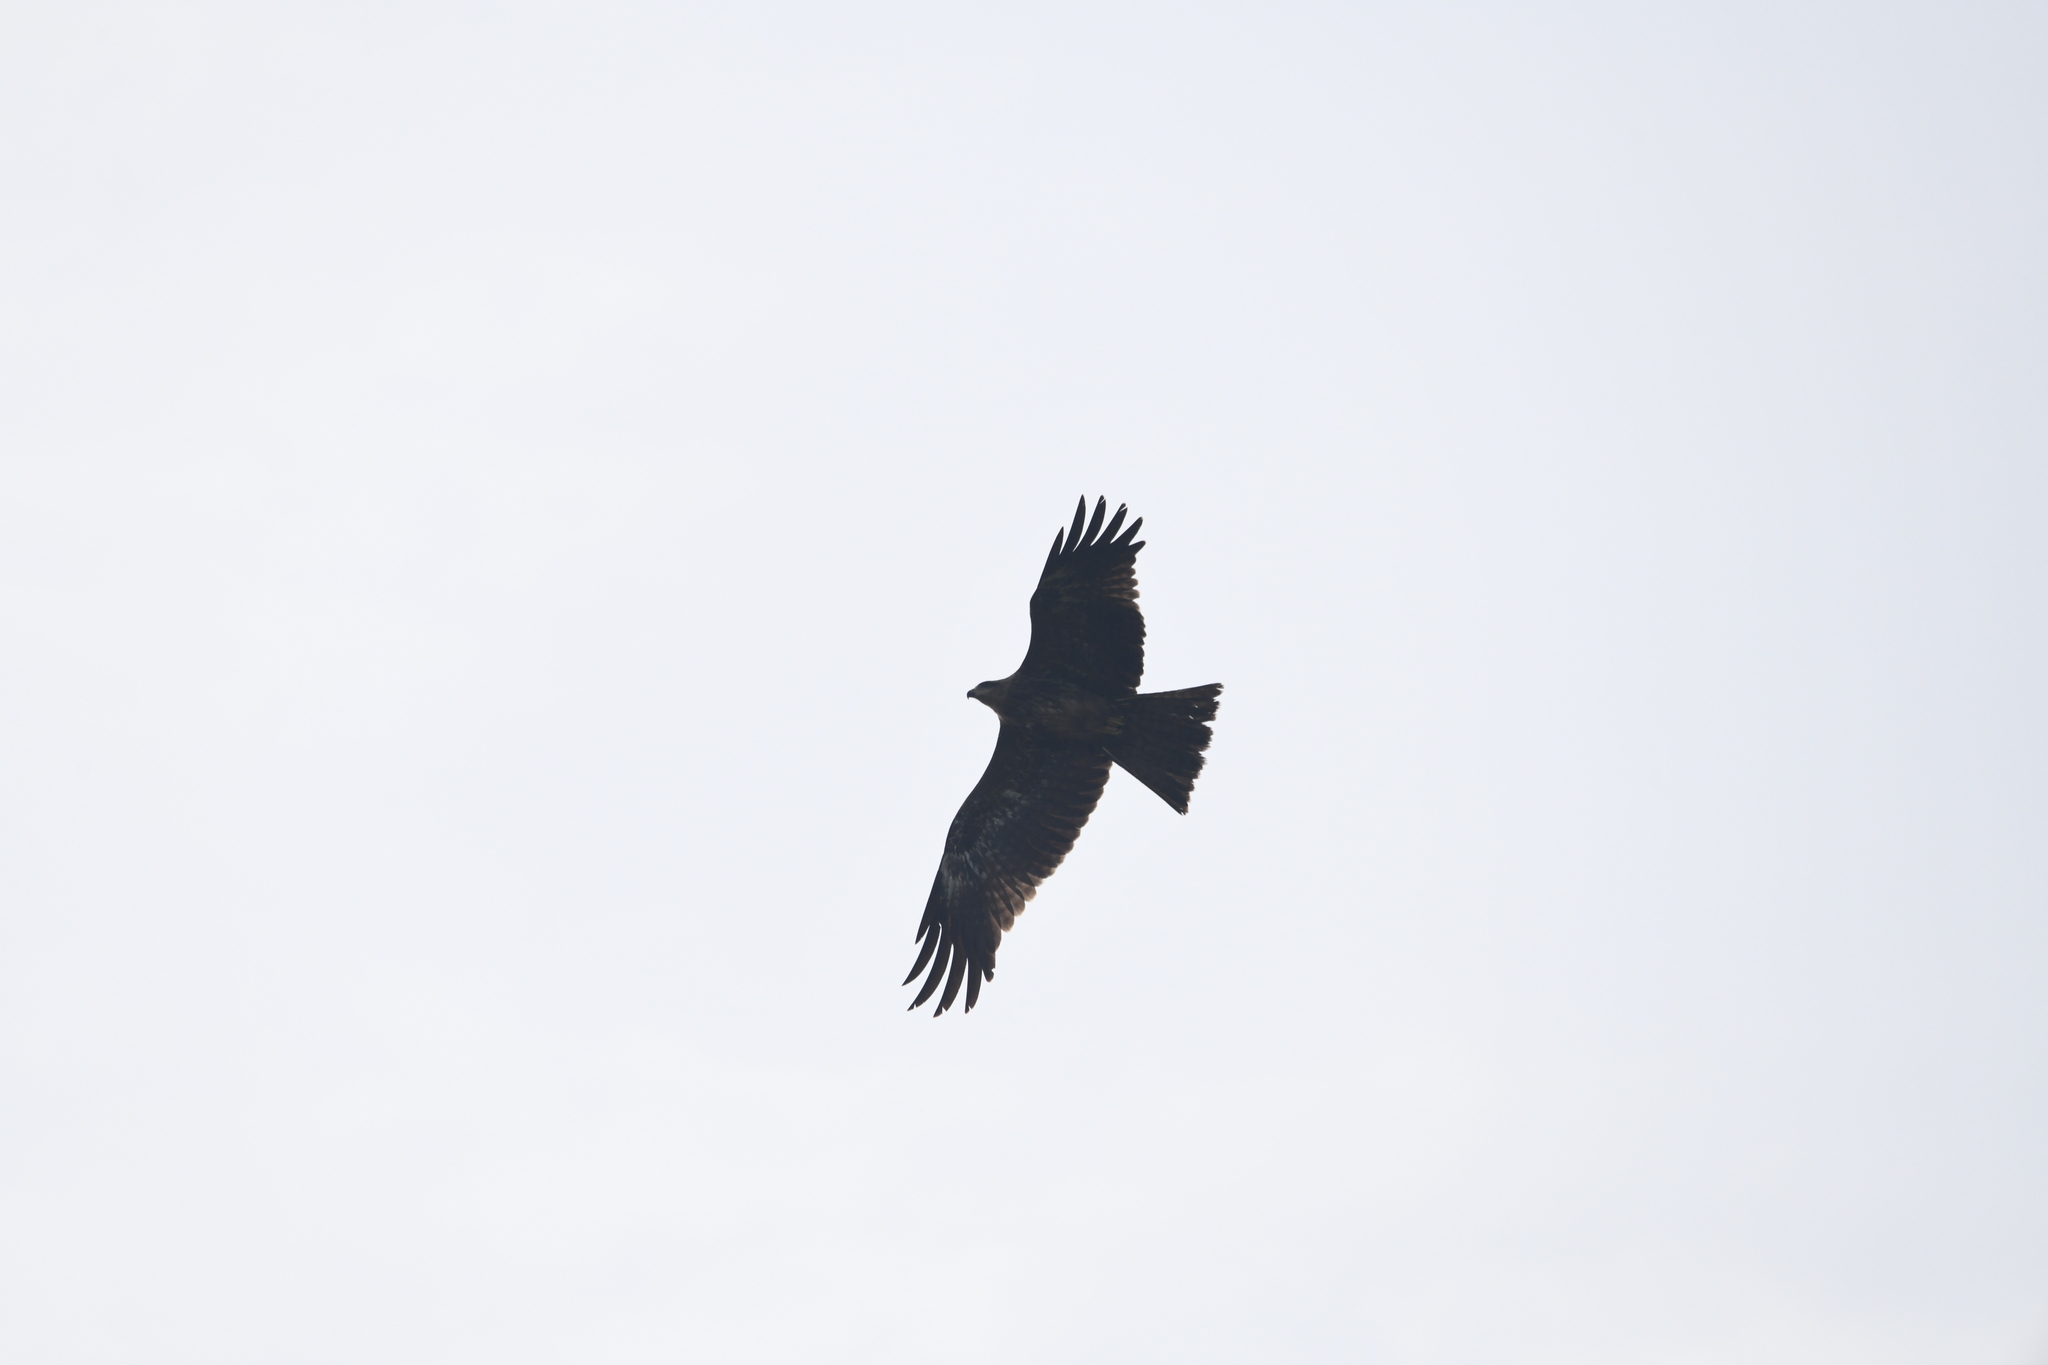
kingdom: Animalia
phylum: Chordata
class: Aves
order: Accipitriformes
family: Accipitridae
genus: Milvus
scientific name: Milvus migrans
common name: Black kite
